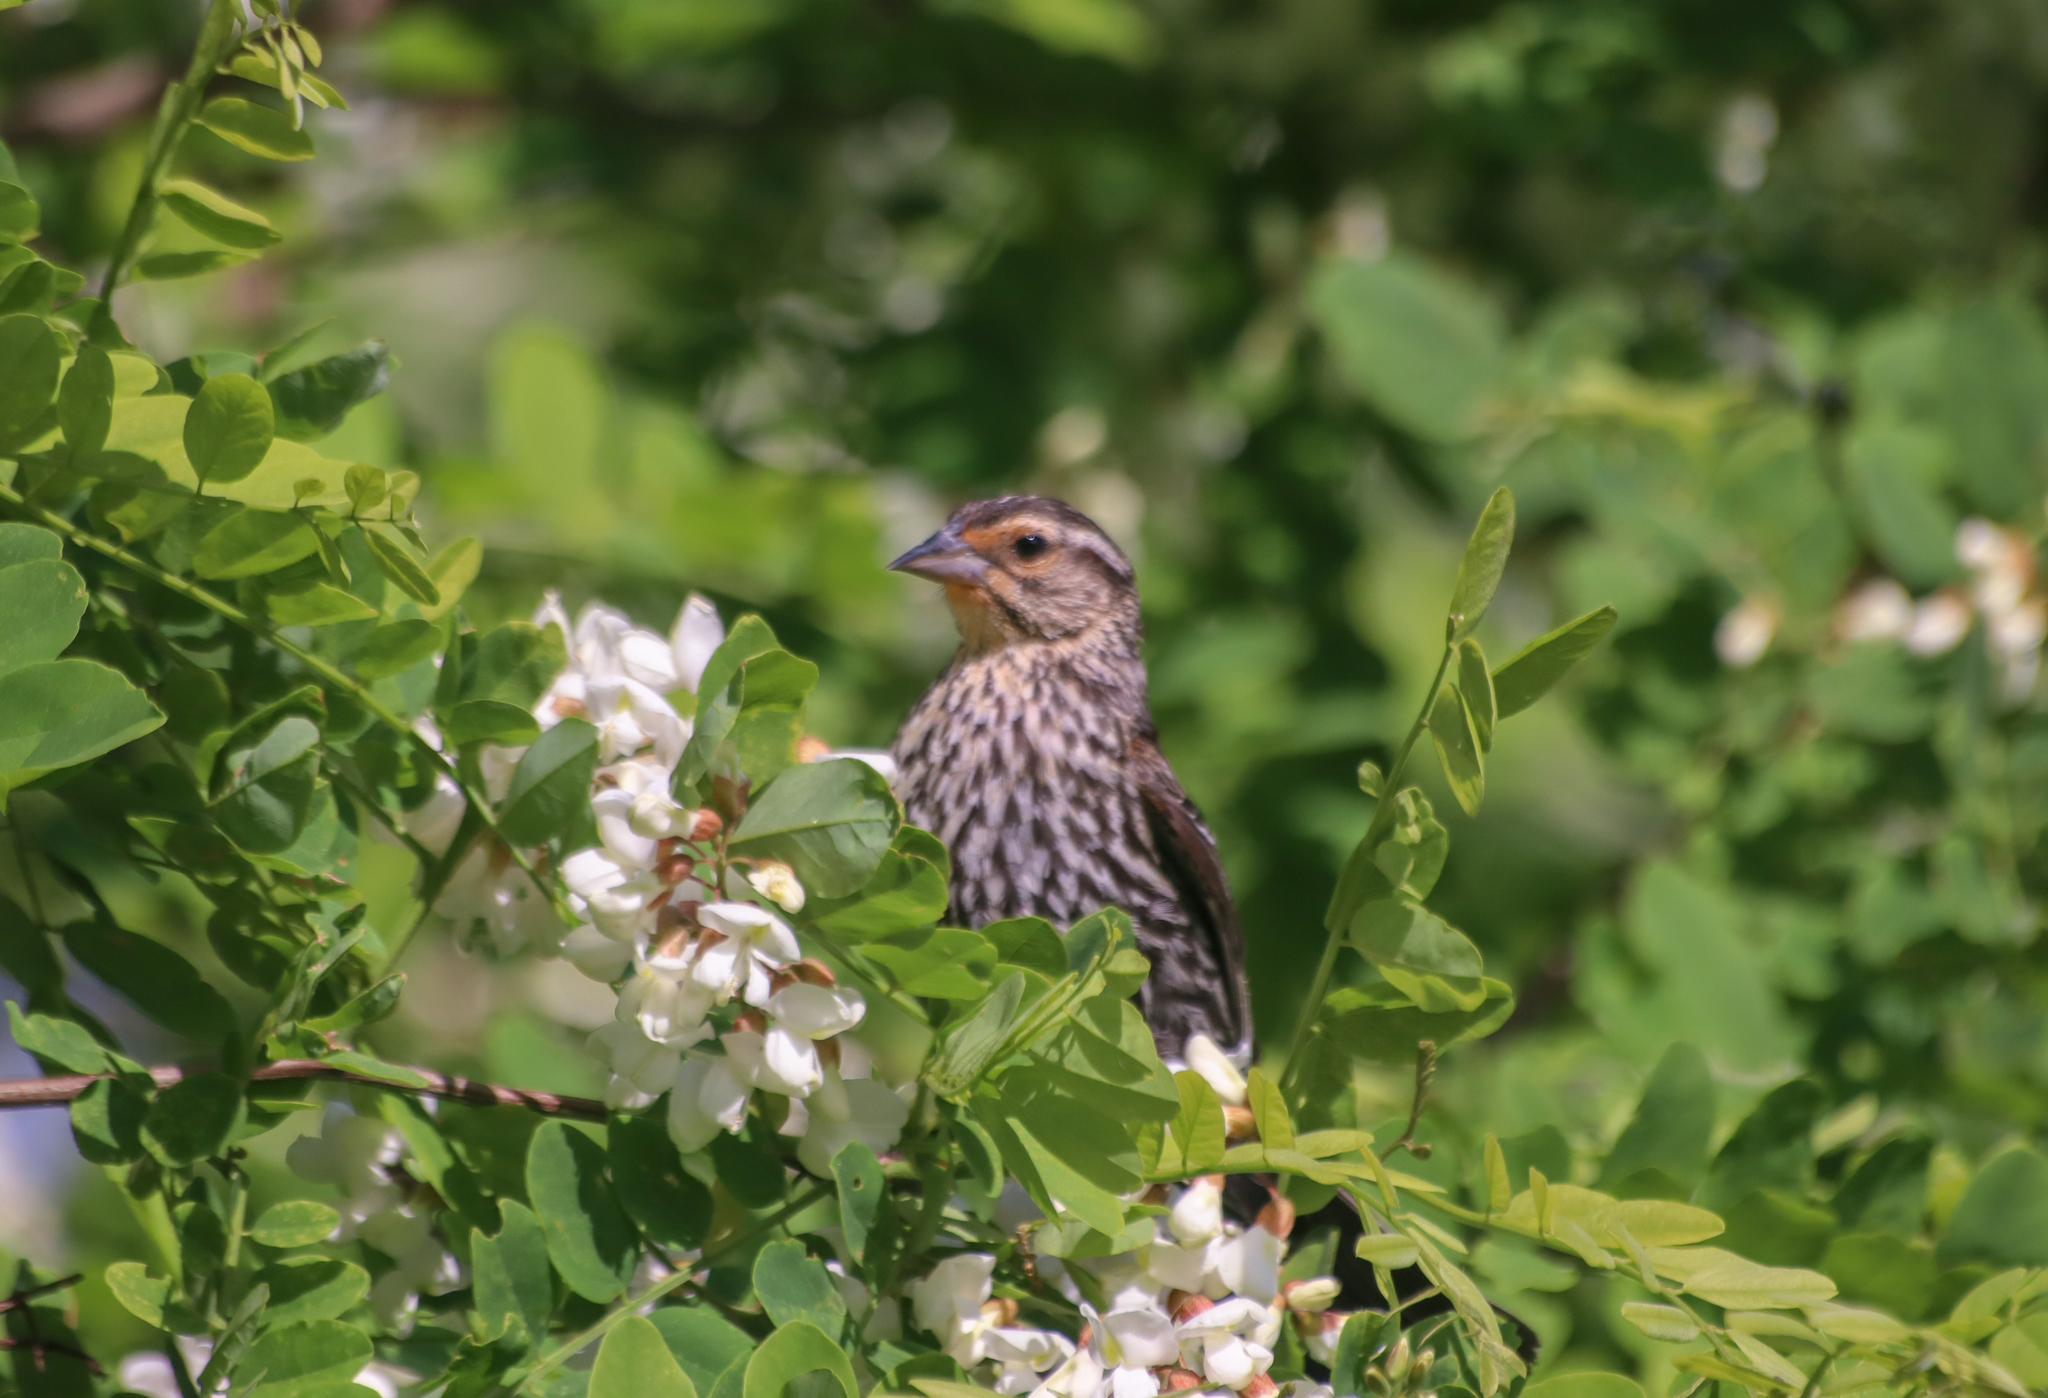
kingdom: Animalia
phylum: Chordata
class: Aves
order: Passeriformes
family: Icteridae
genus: Agelaius
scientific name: Agelaius phoeniceus
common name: Red-winged blackbird
